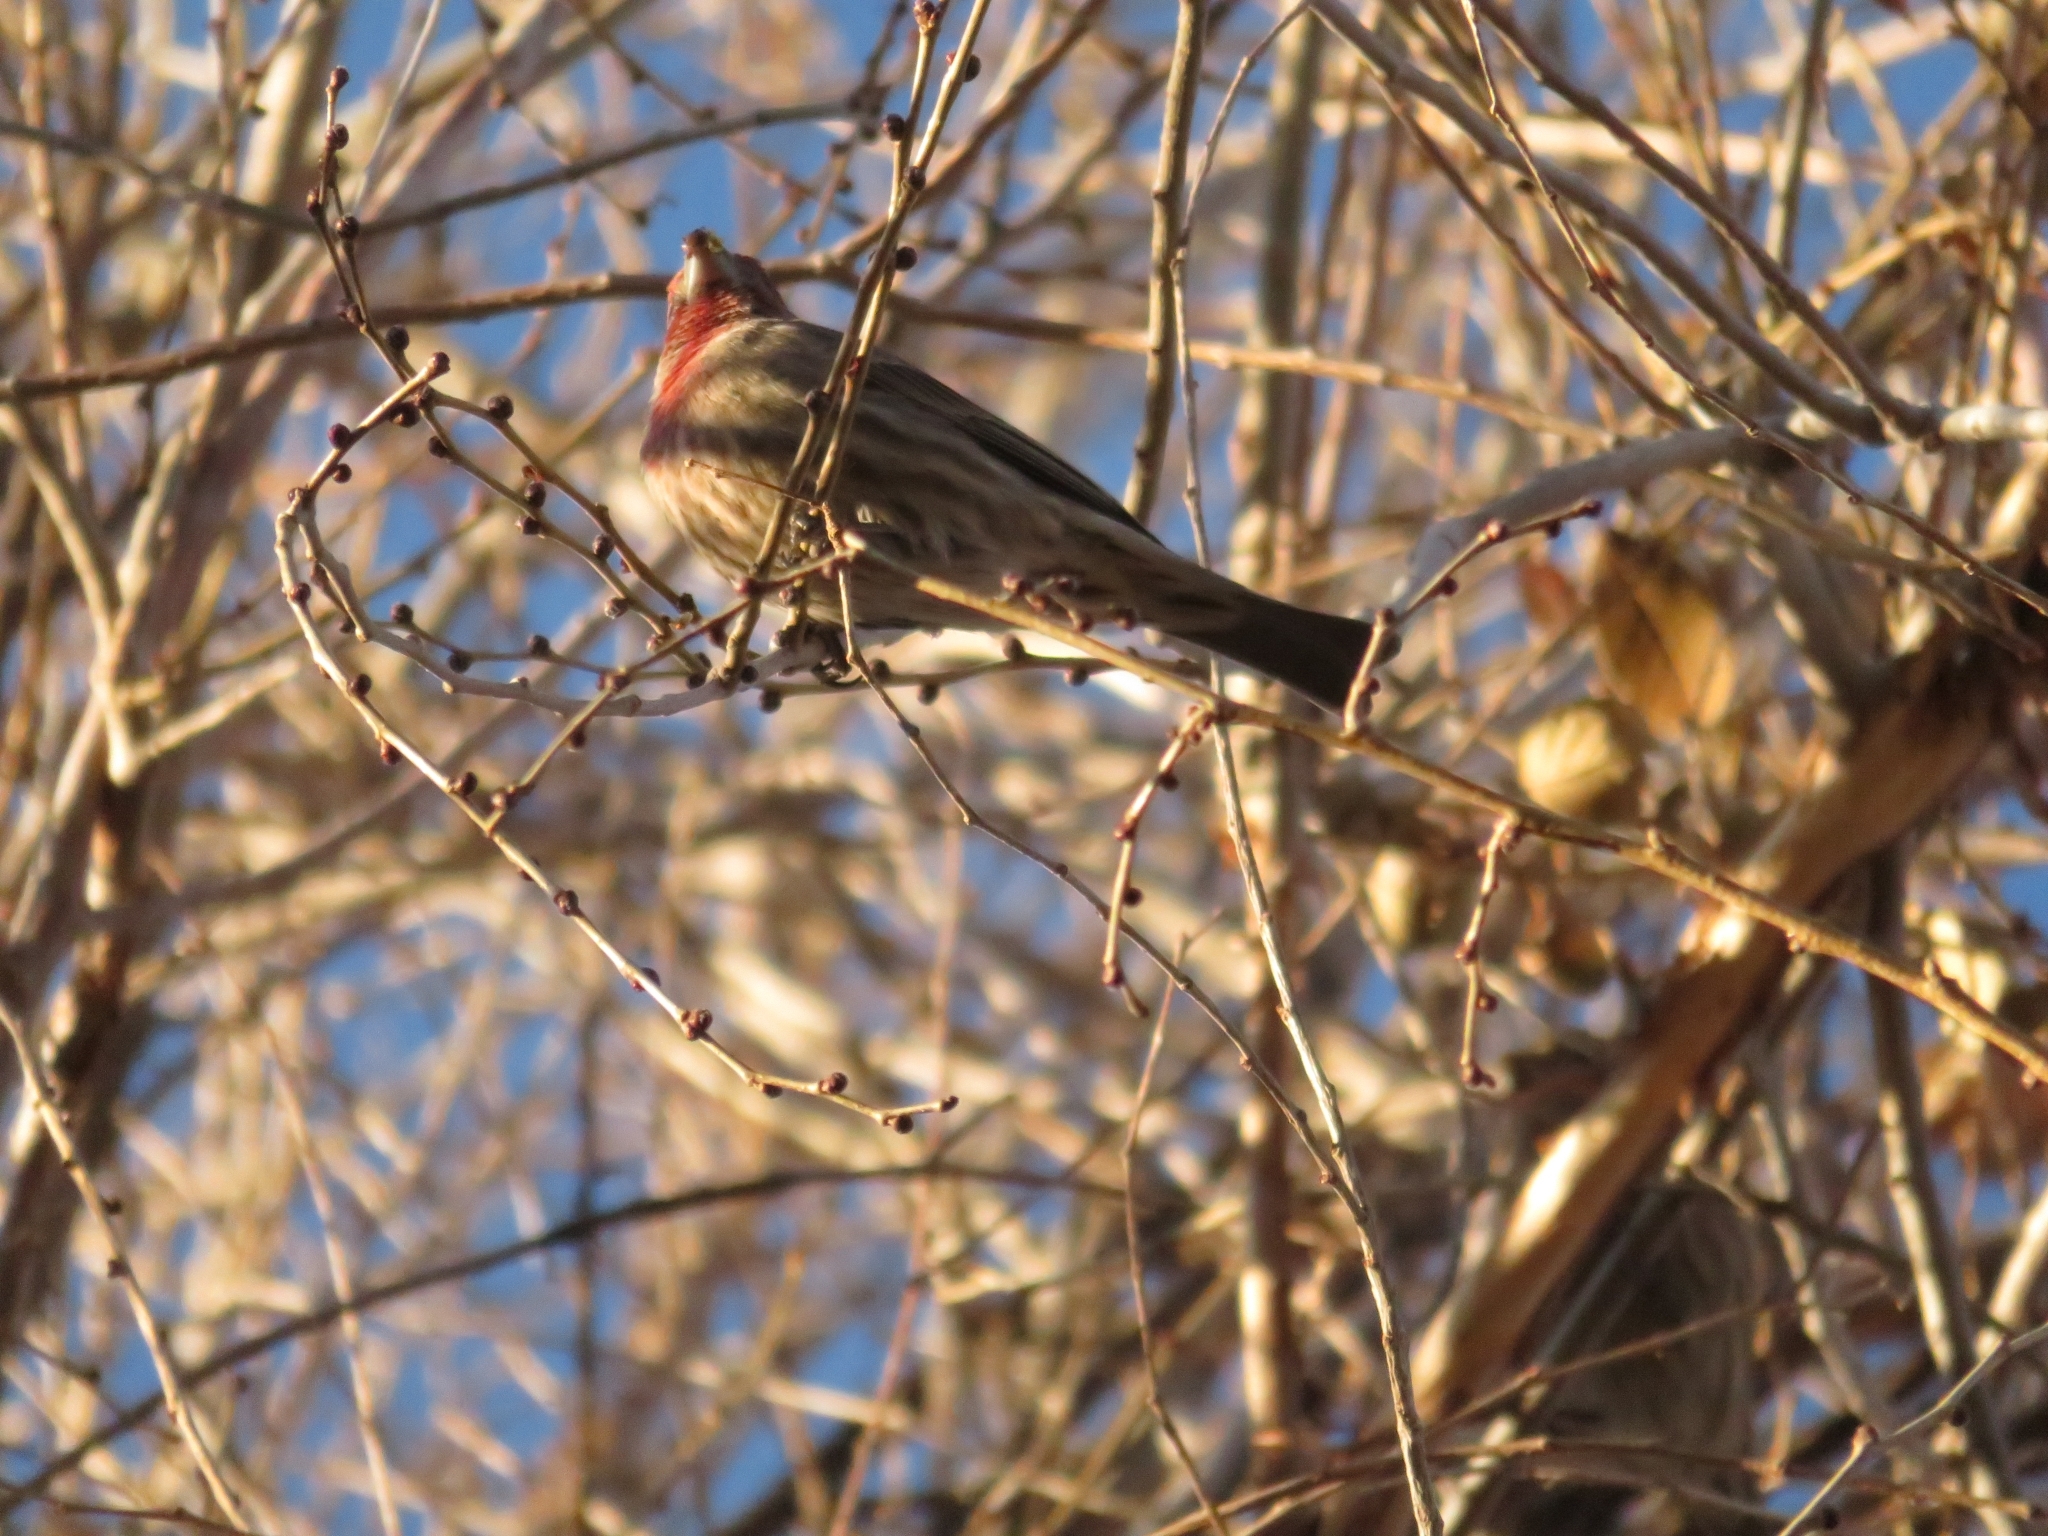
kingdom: Animalia
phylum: Chordata
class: Aves
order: Passeriformes
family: Fringillidae
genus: Haemorhous
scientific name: Haemorhous mexicanus
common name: House finch
